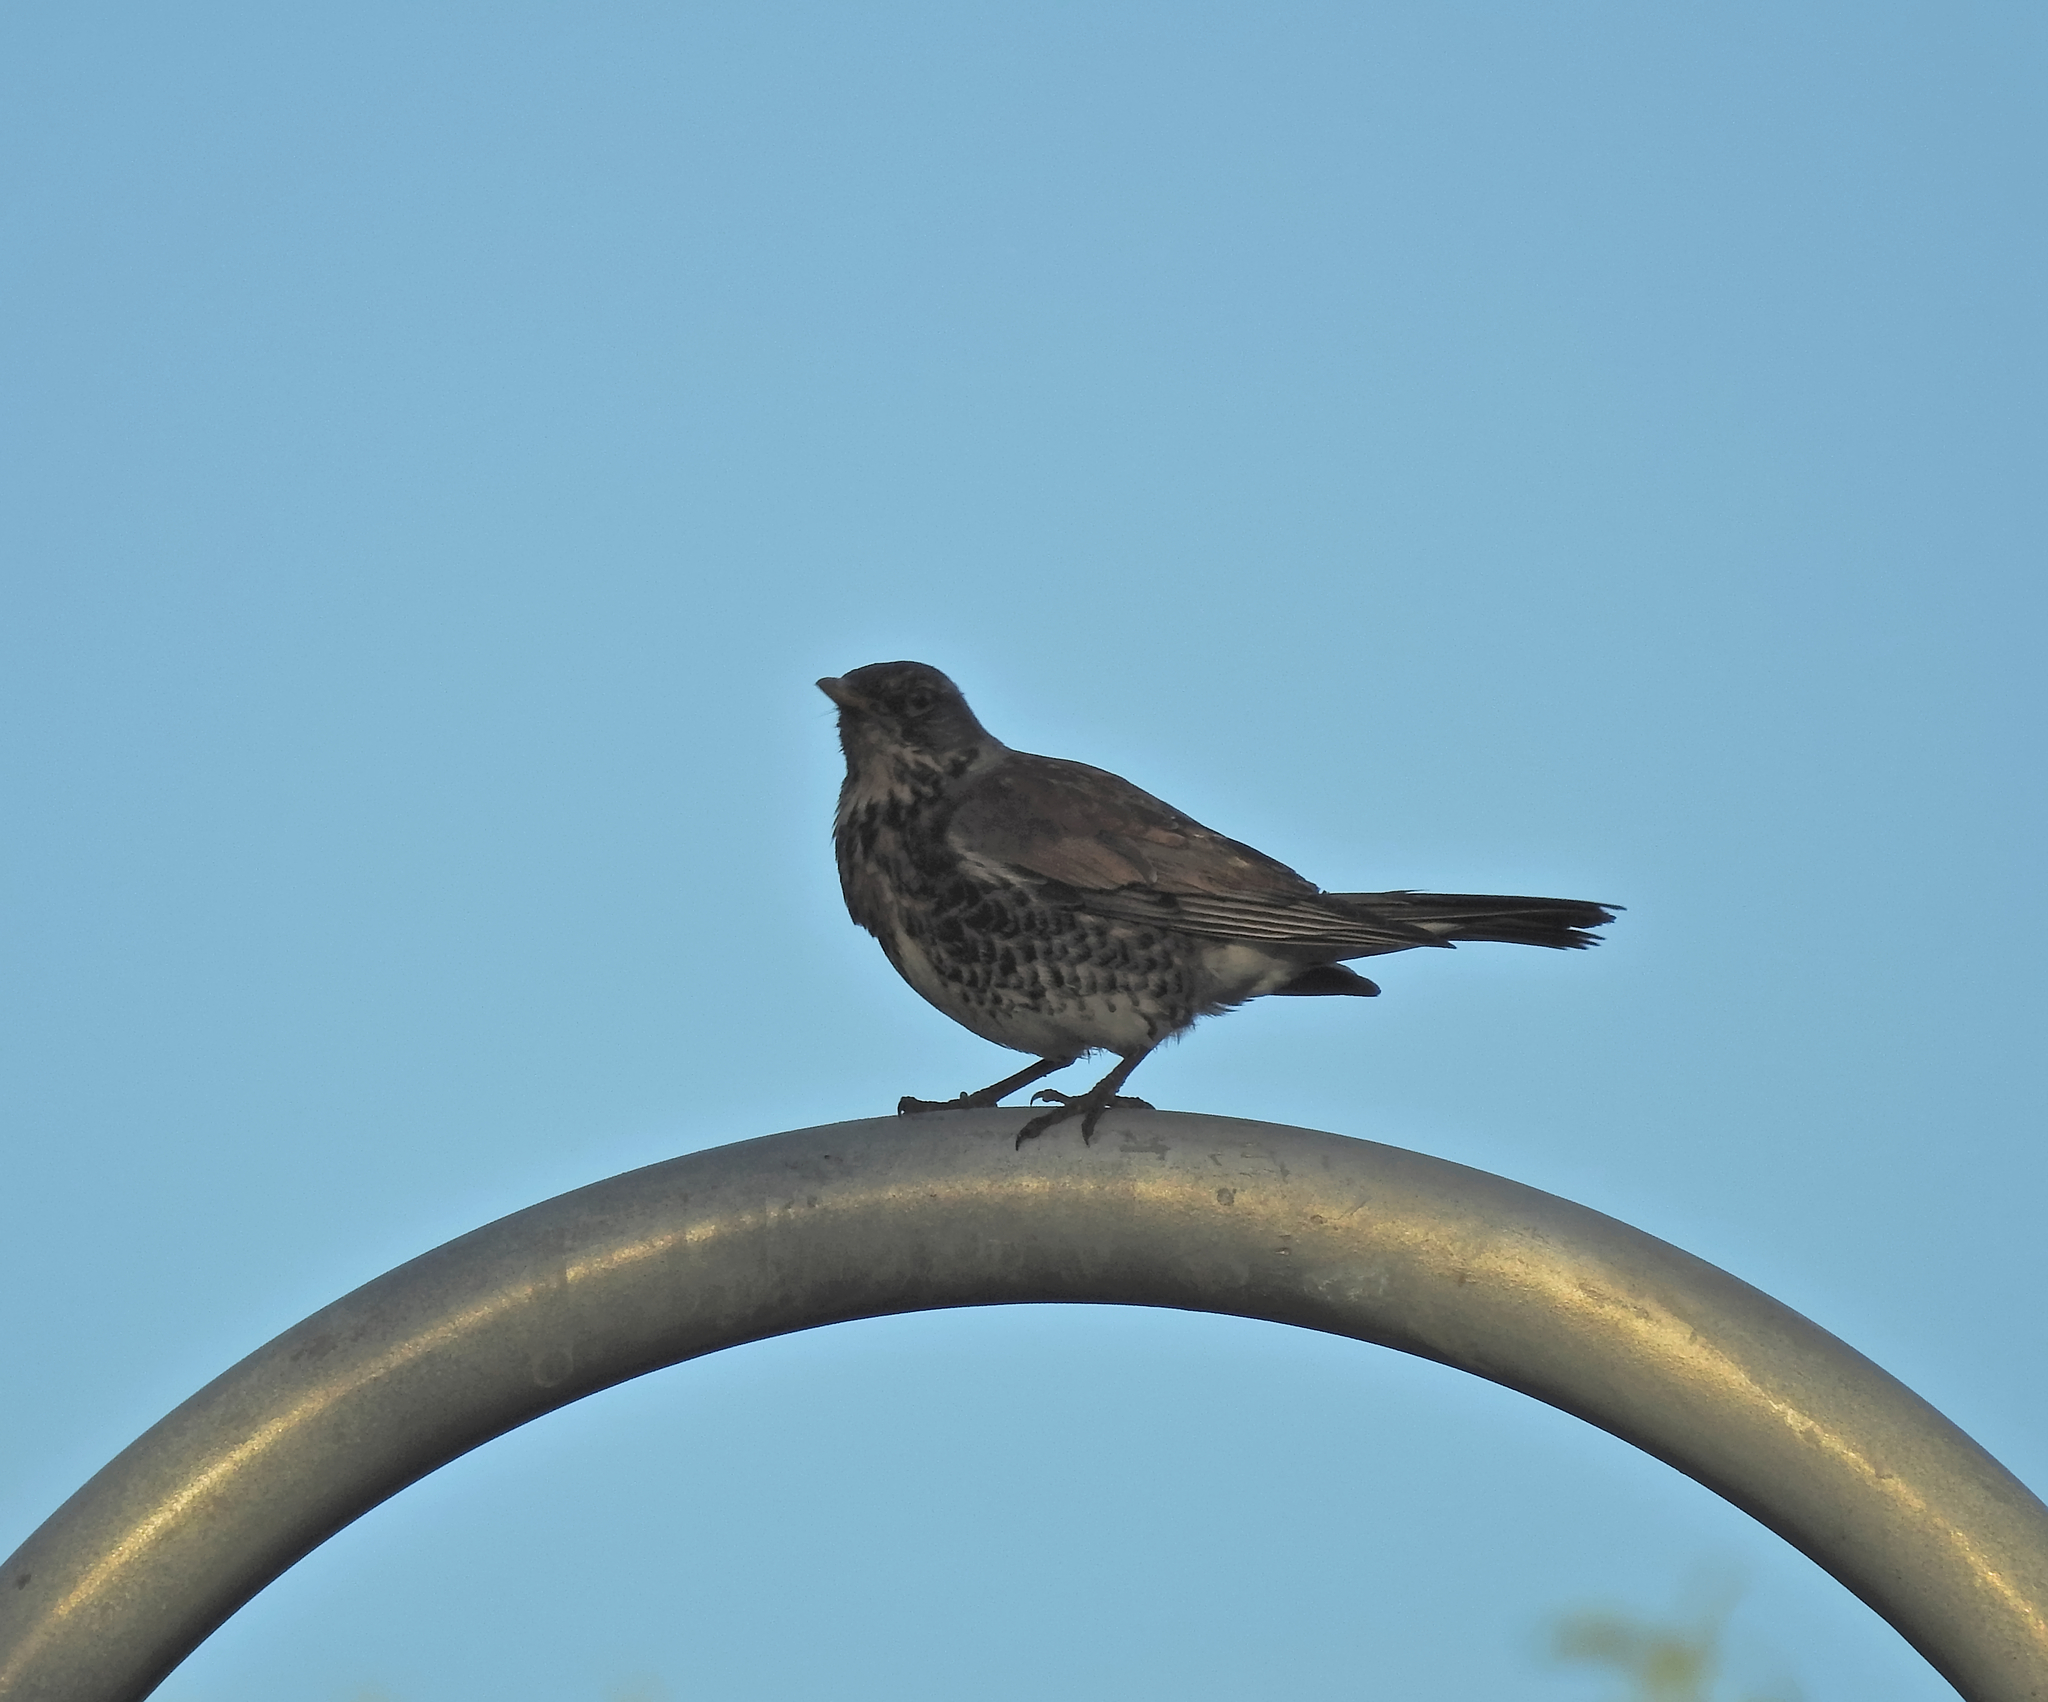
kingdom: Animalia
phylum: Chordata
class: Aves
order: Passeriformes
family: Turdidae
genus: Turdus
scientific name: Turdus pilaris
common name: Fieldfare
